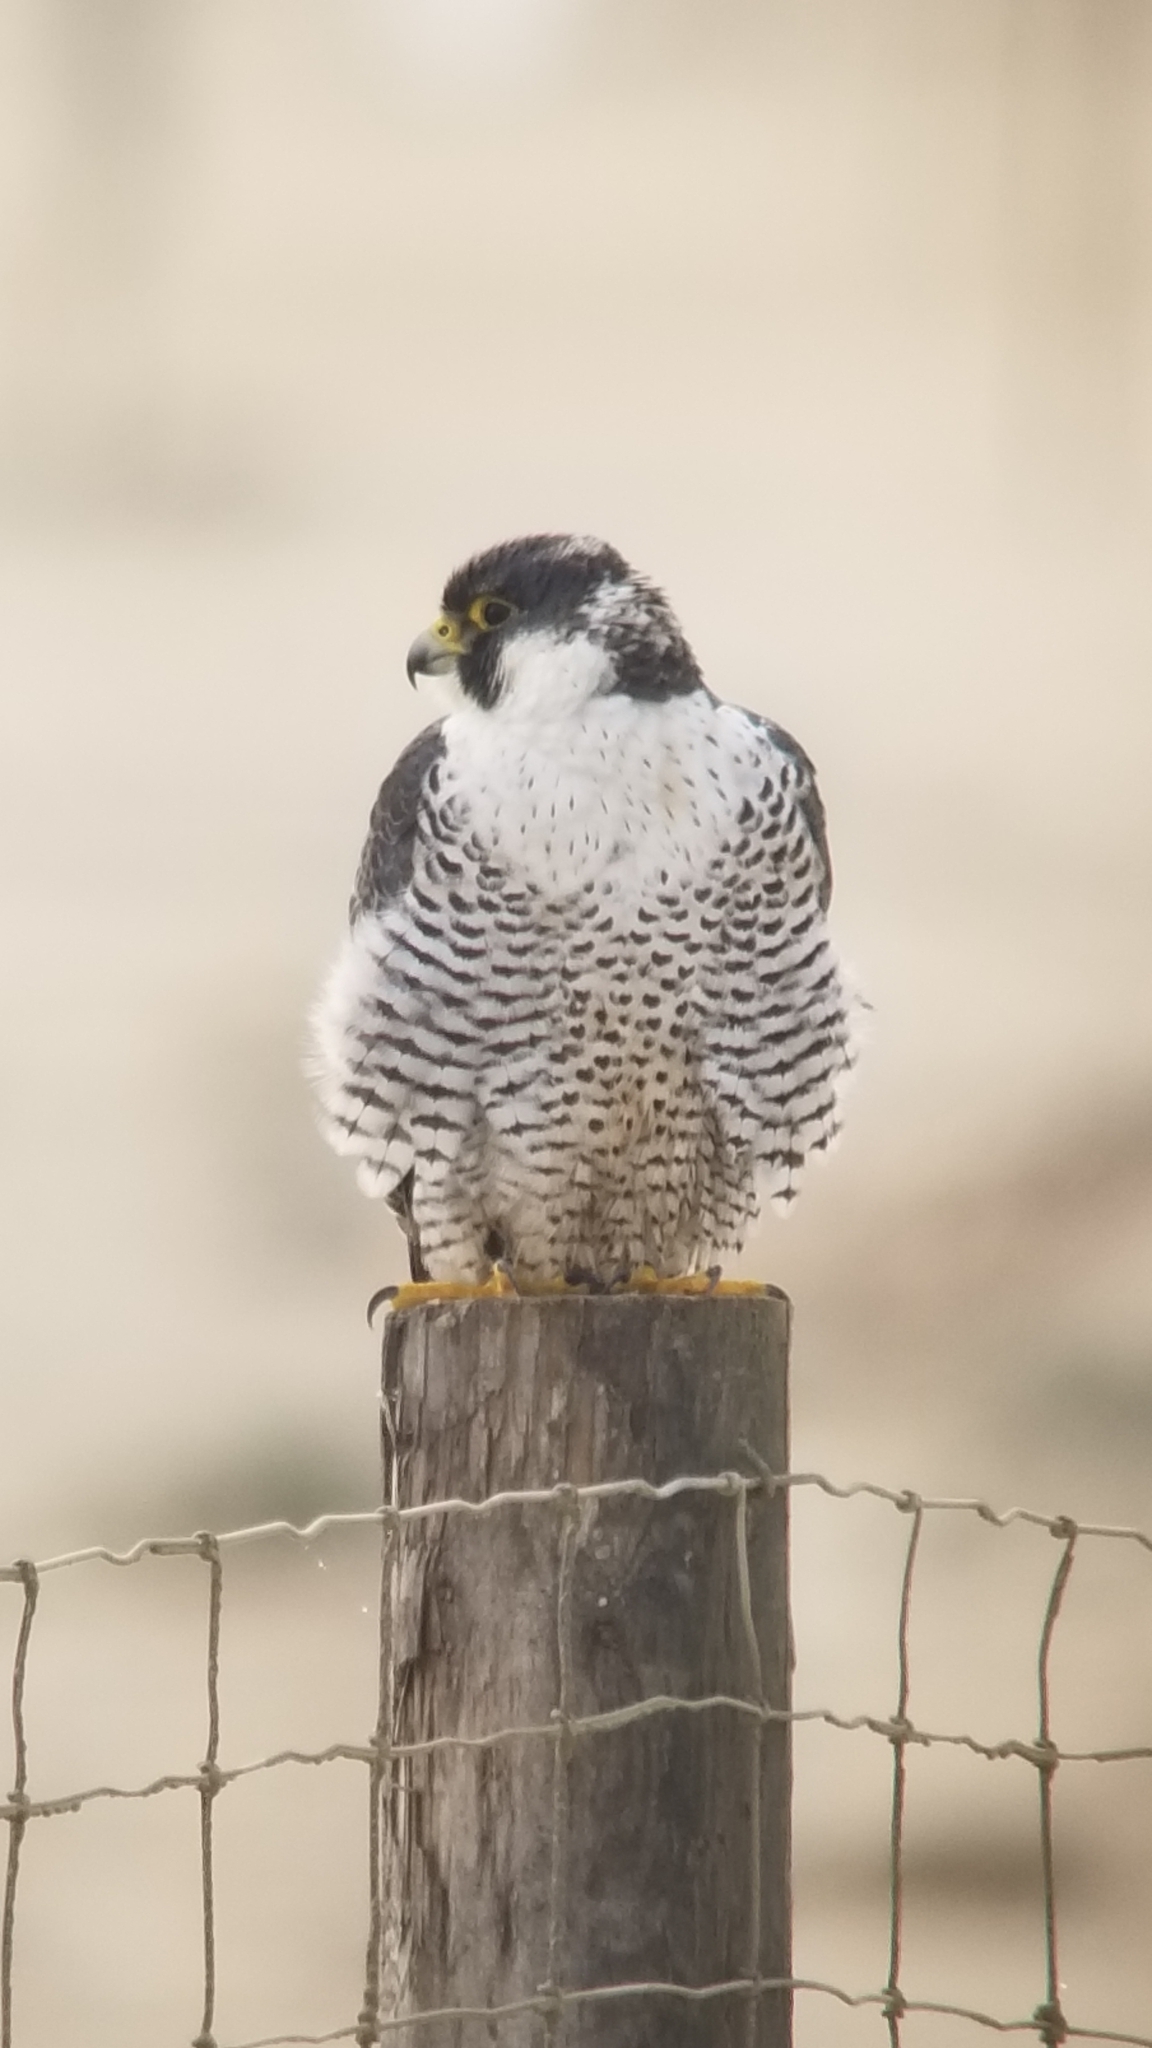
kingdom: Animalia
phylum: Chordata
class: Aves
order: Falconiformes
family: Falconidae
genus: Falco
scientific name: Falco peregrinus
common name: Peregrine falcon
